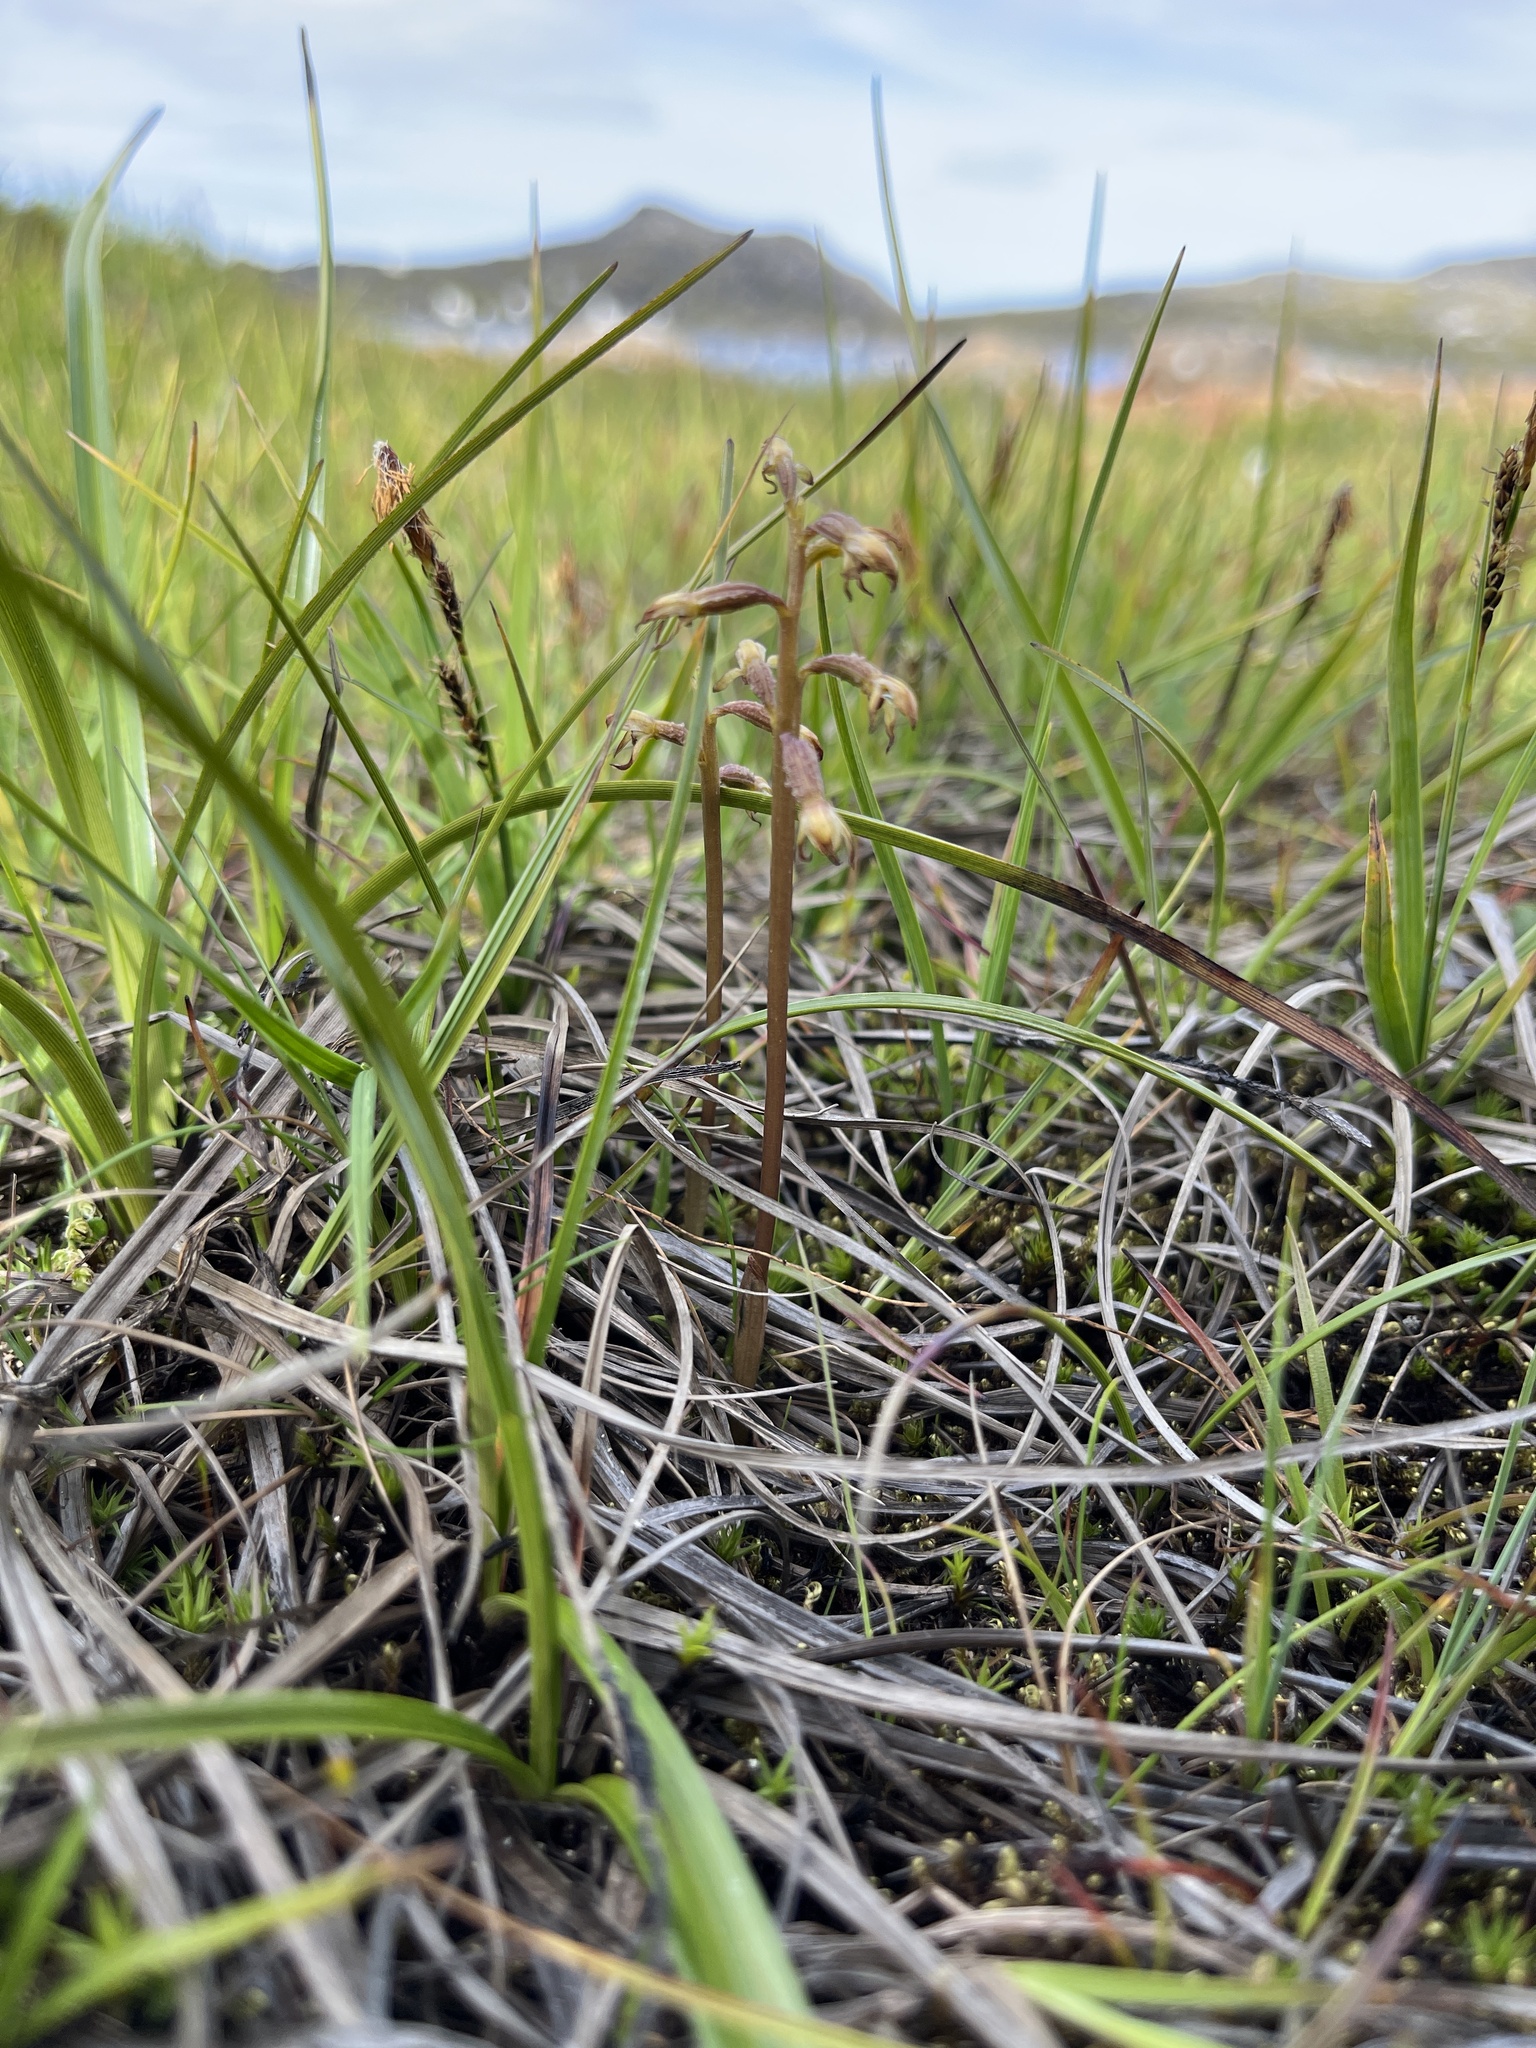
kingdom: Plantae
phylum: Tracheophyta
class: Liliopsida
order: Asparagales
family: Orchidaceae
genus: Corallorhiza
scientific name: Corallorhiza trifida
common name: Yellow coralroot
